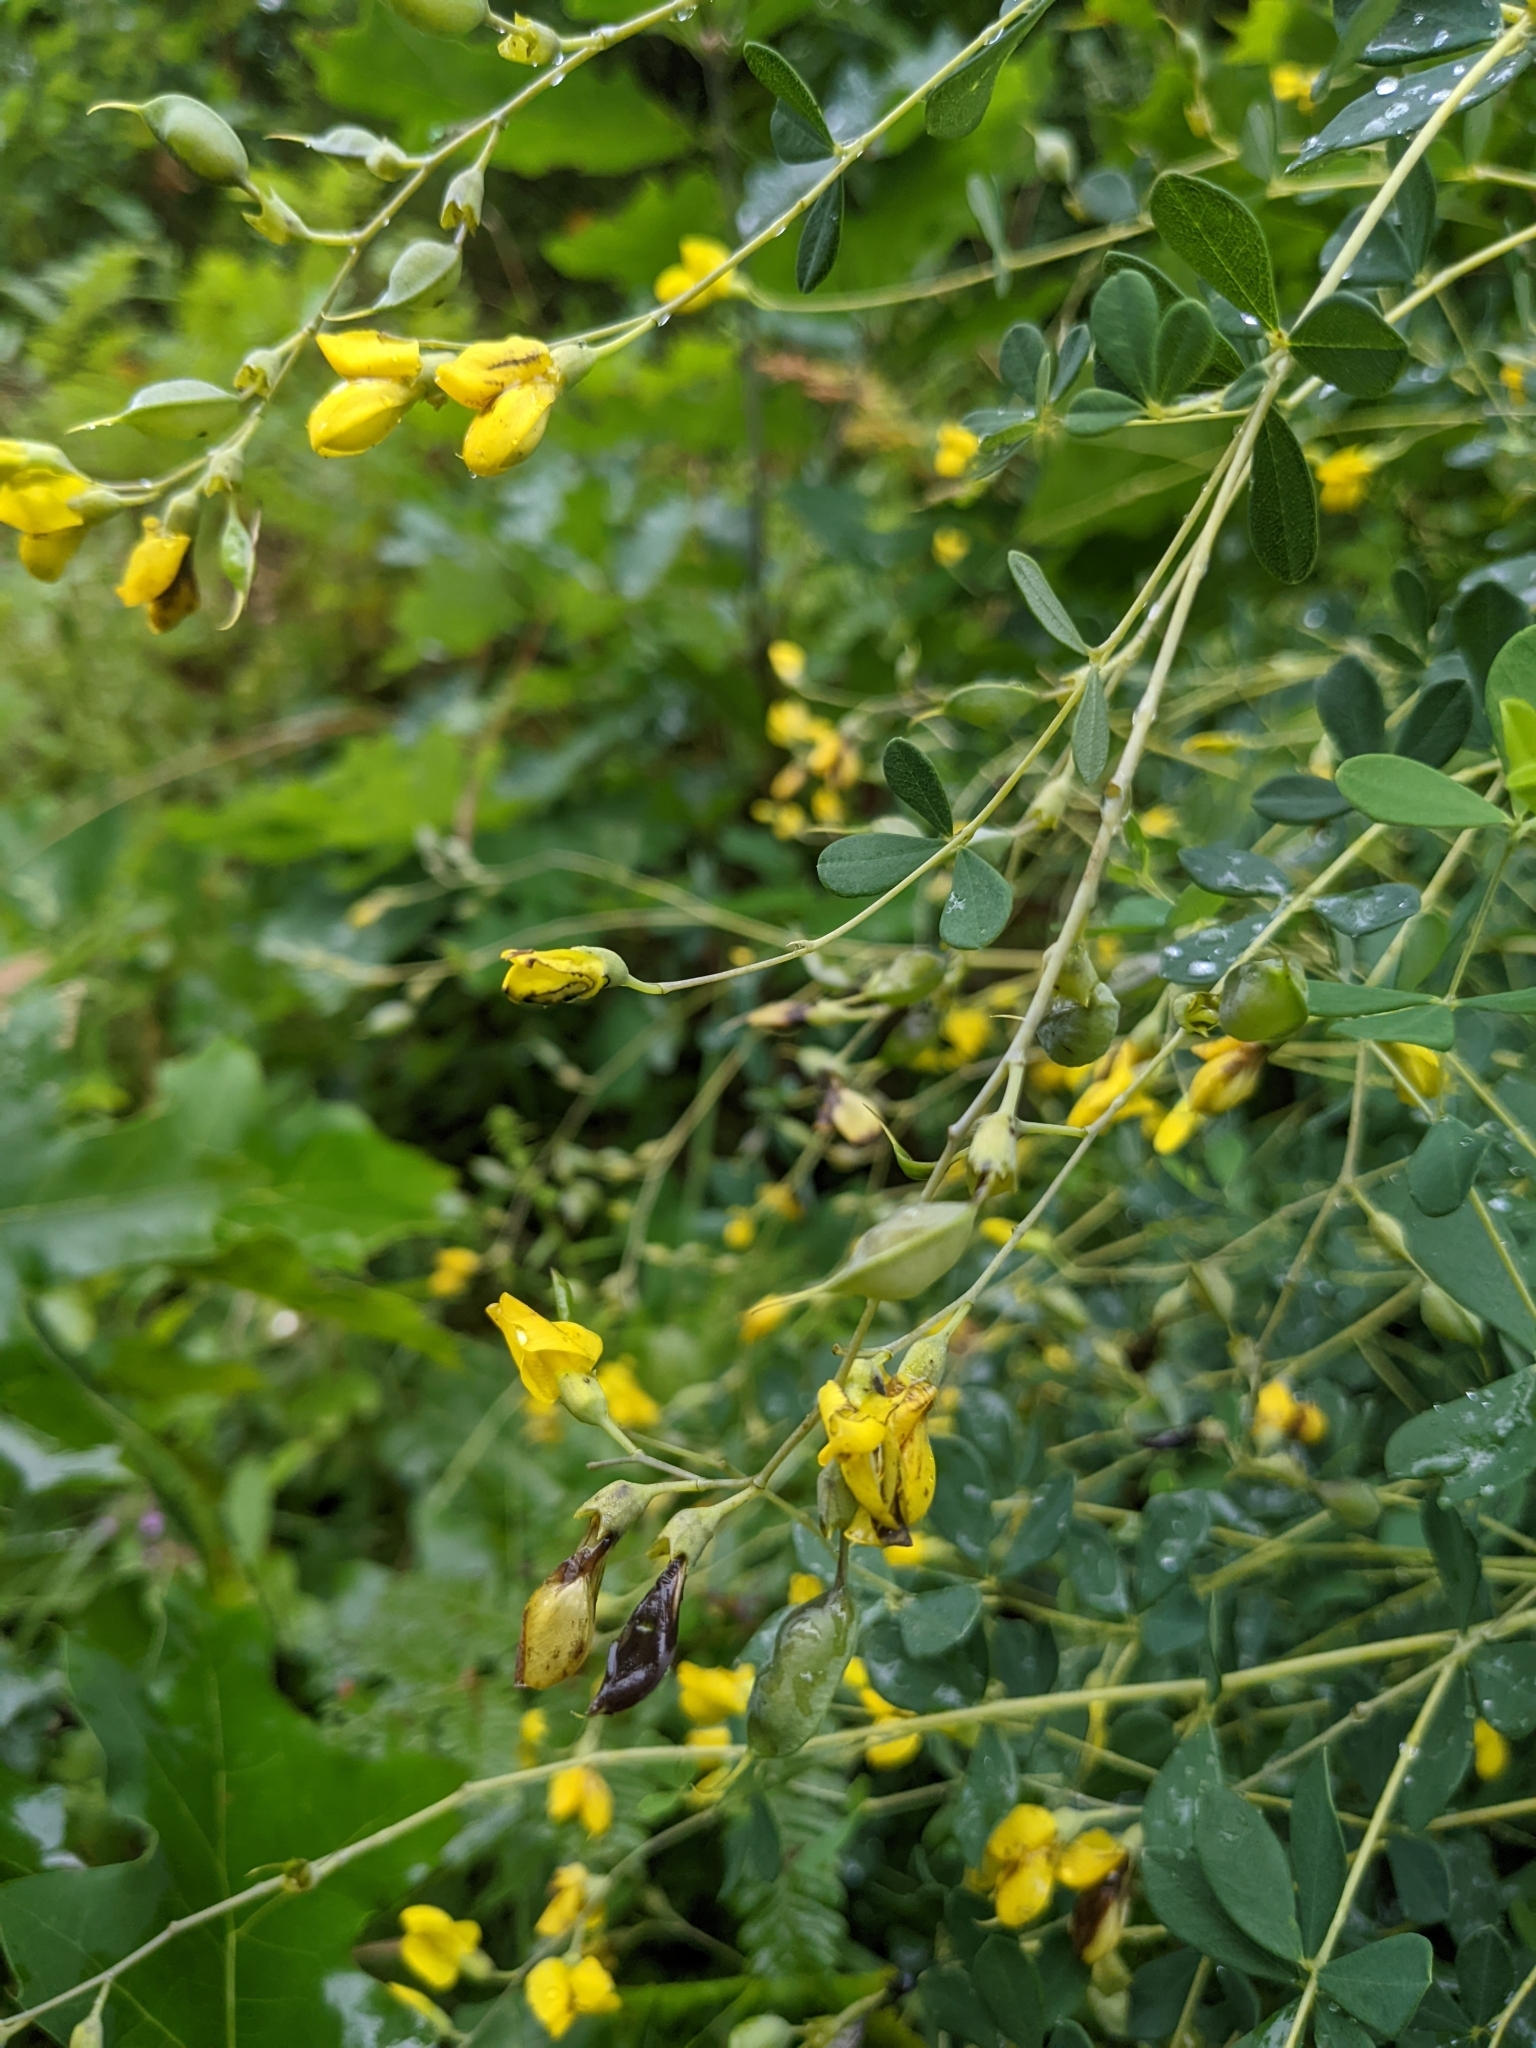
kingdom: Plantae
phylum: Tracheophyta
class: Magnoliopsida
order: Fabales
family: Fabaceae
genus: Baptisia
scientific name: Baptisia tinctoria
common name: Wild indigo
